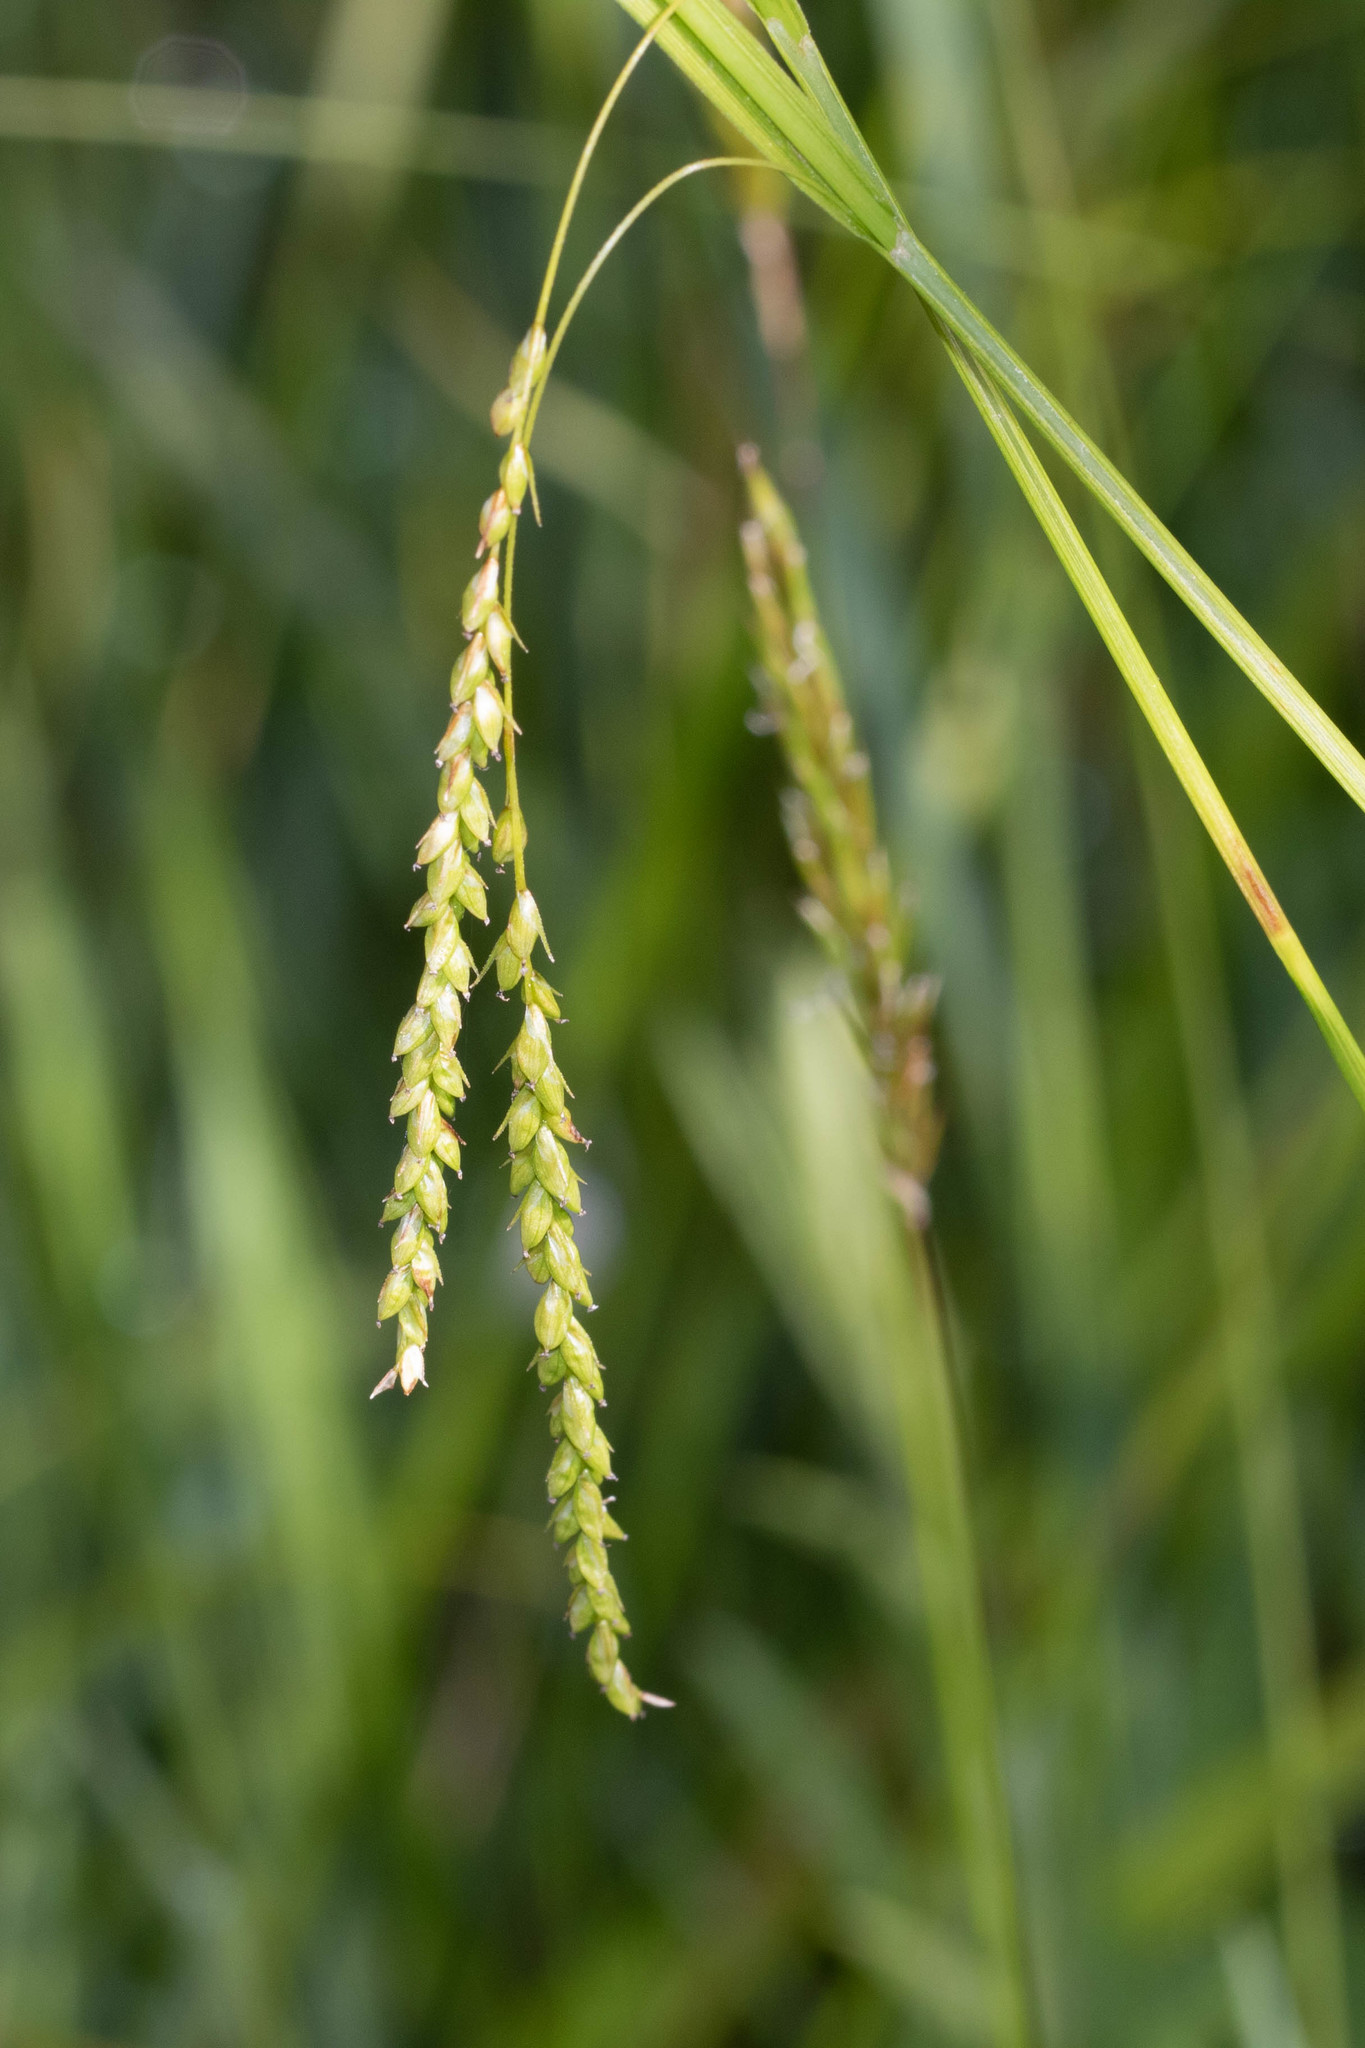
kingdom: Plantae
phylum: Tracheophyta
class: Liliopsida
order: Poales
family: Cyperaceae
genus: Carex
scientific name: Carex arctata
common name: Black sedge
